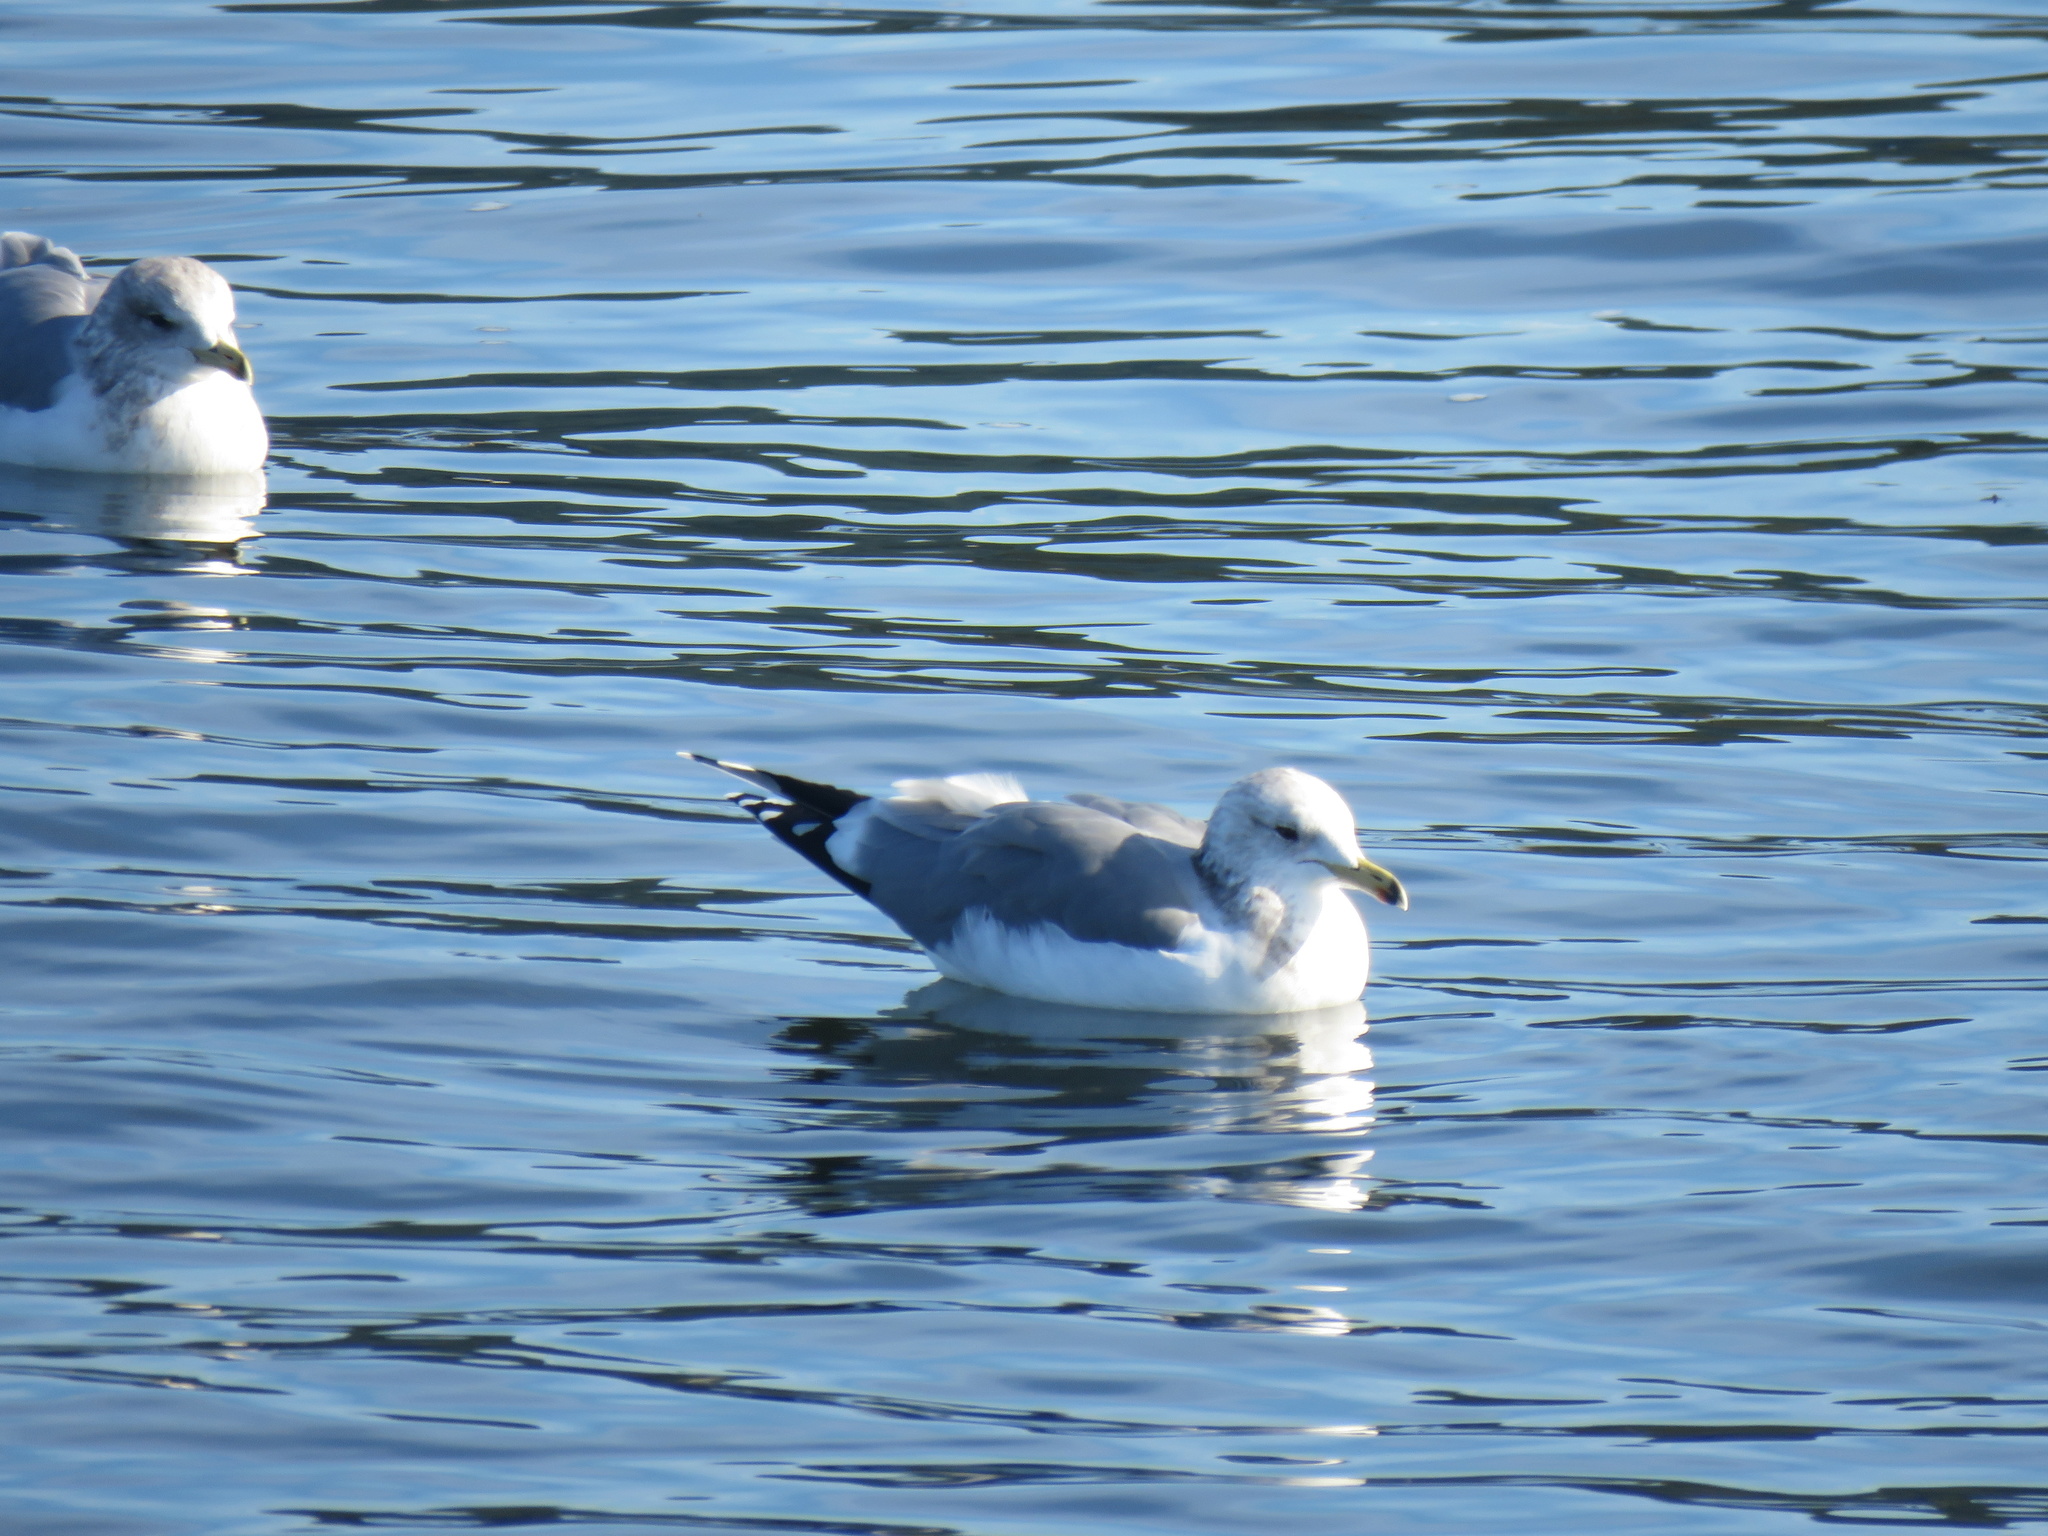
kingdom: Animalia
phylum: Chordata
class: Aves
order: Charadriiformes
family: Laridae
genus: Larus
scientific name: Larus californicus
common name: California gull
